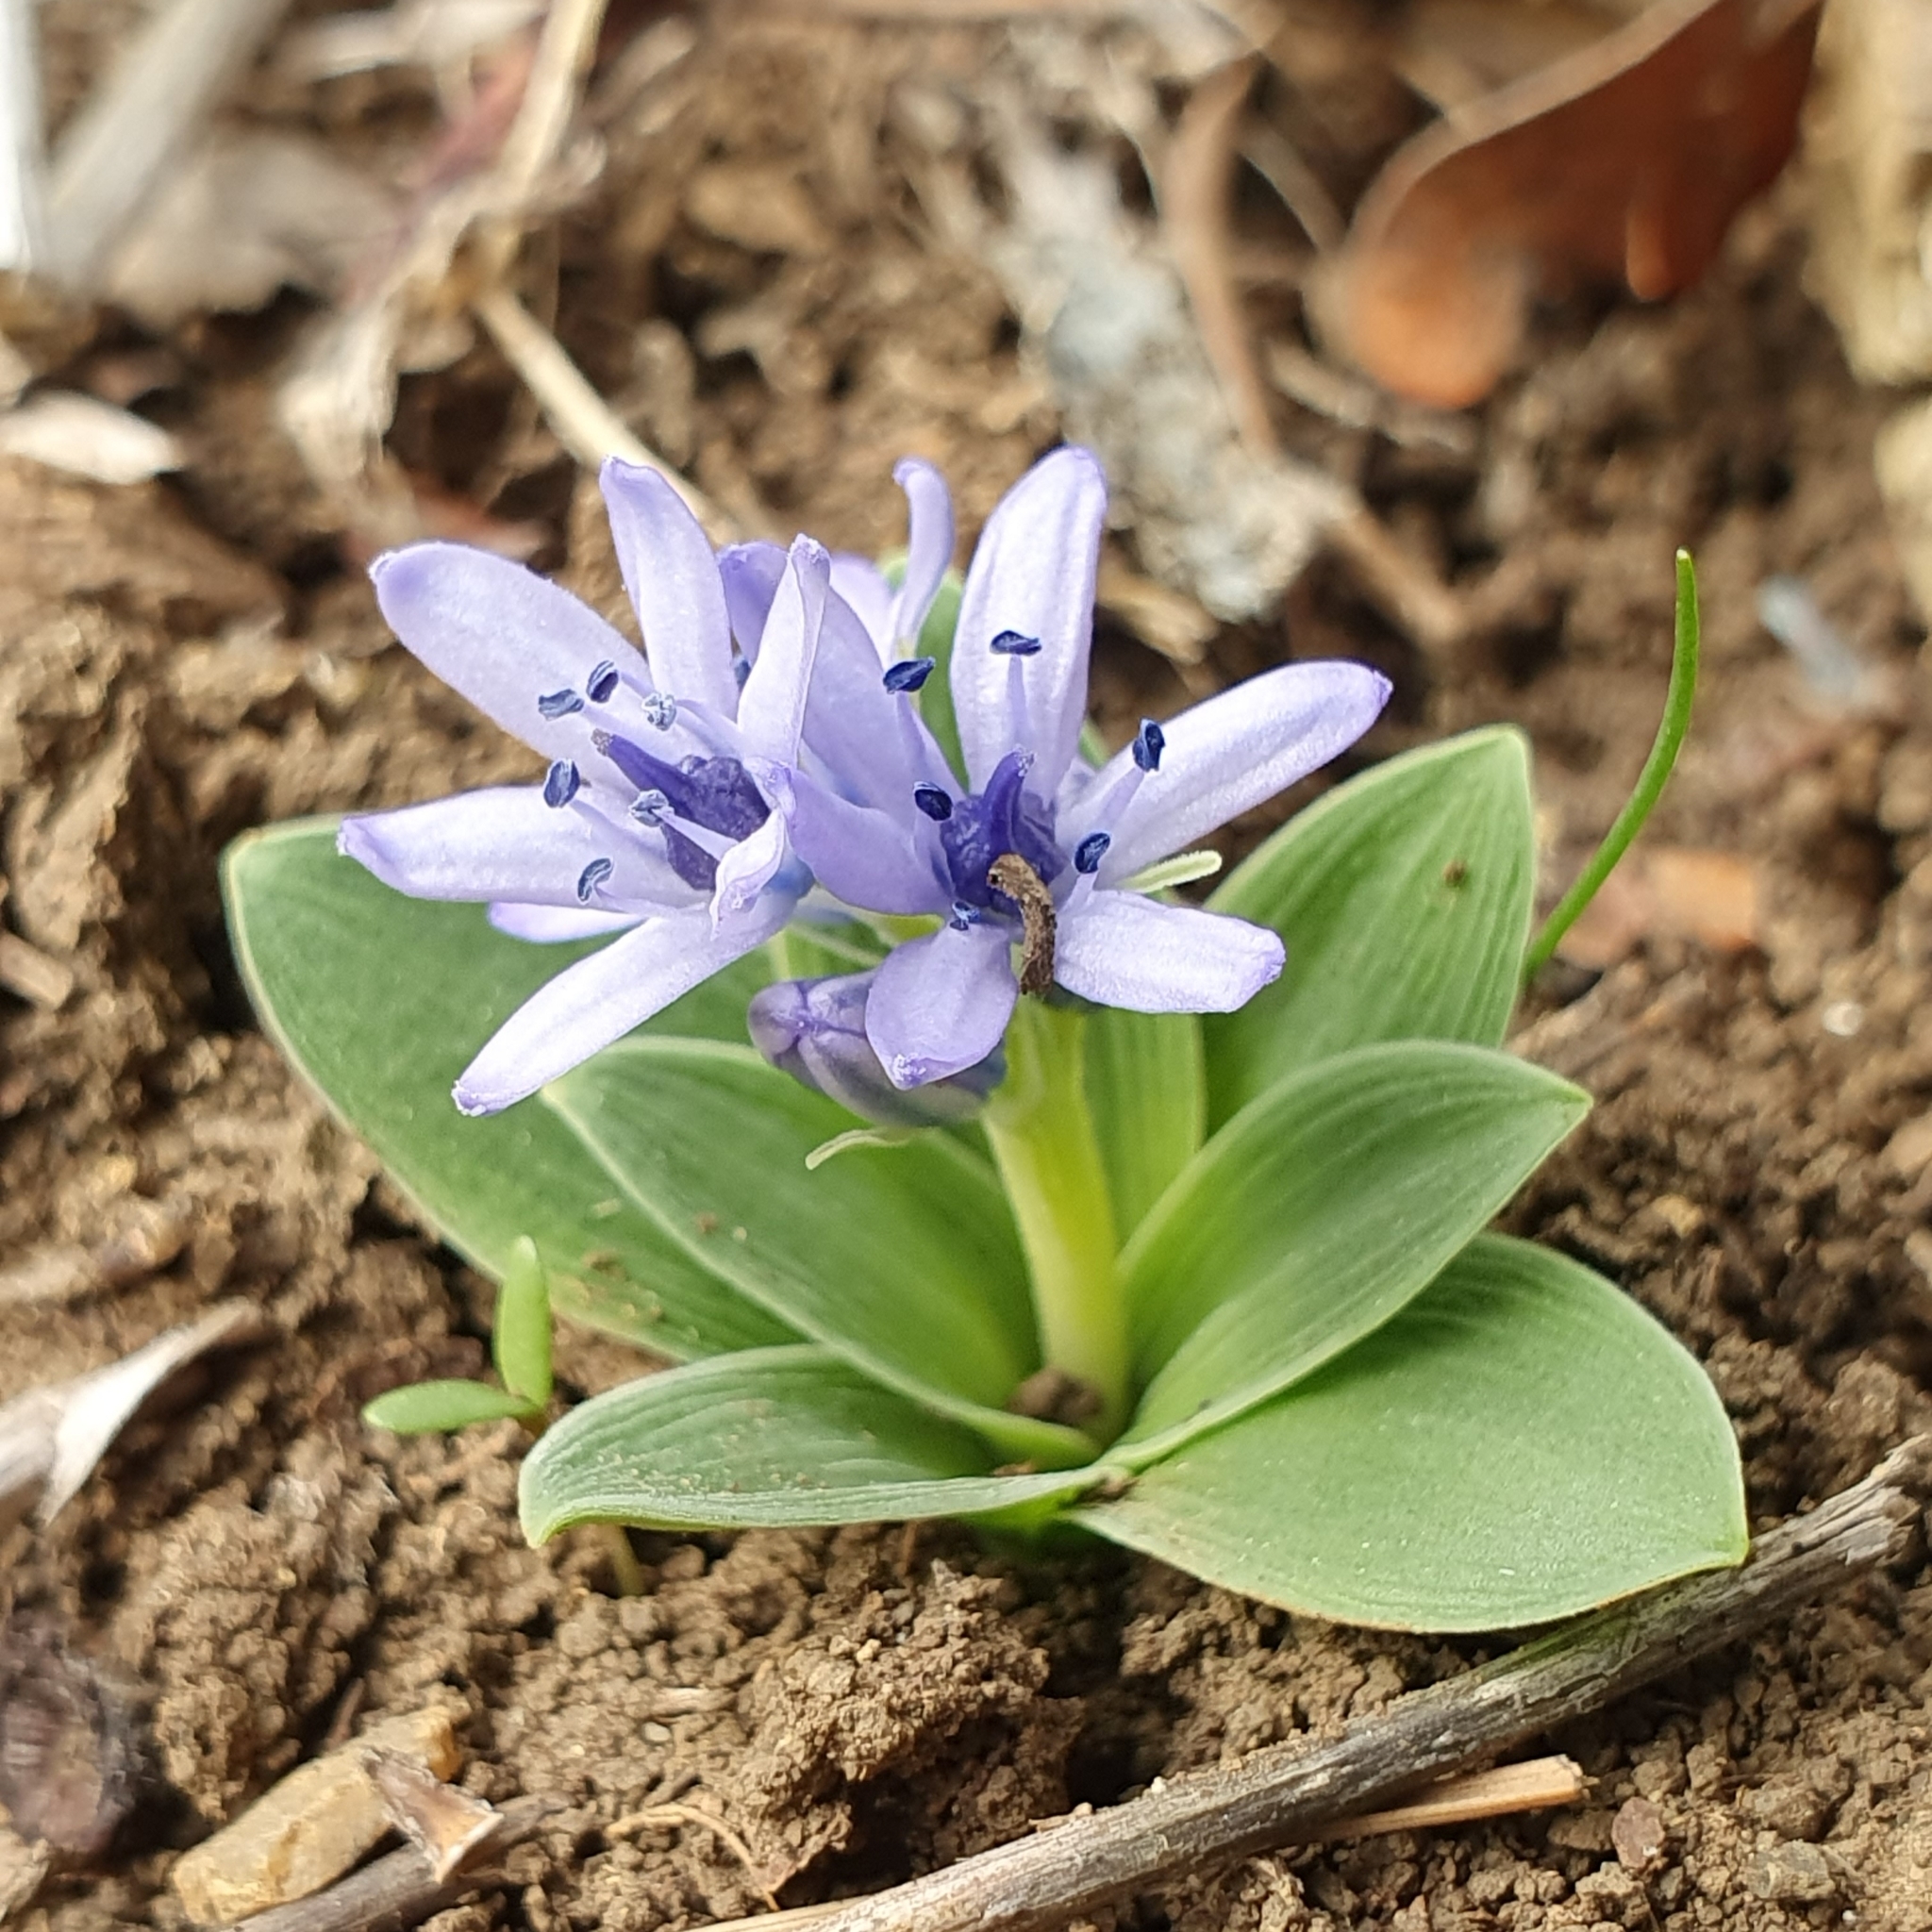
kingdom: Plantae
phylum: Tracheophyta
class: Liliopsida
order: Asparagales
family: Asparagaceae
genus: Hyacinthoides
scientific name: Hyacinthoides lingulata
